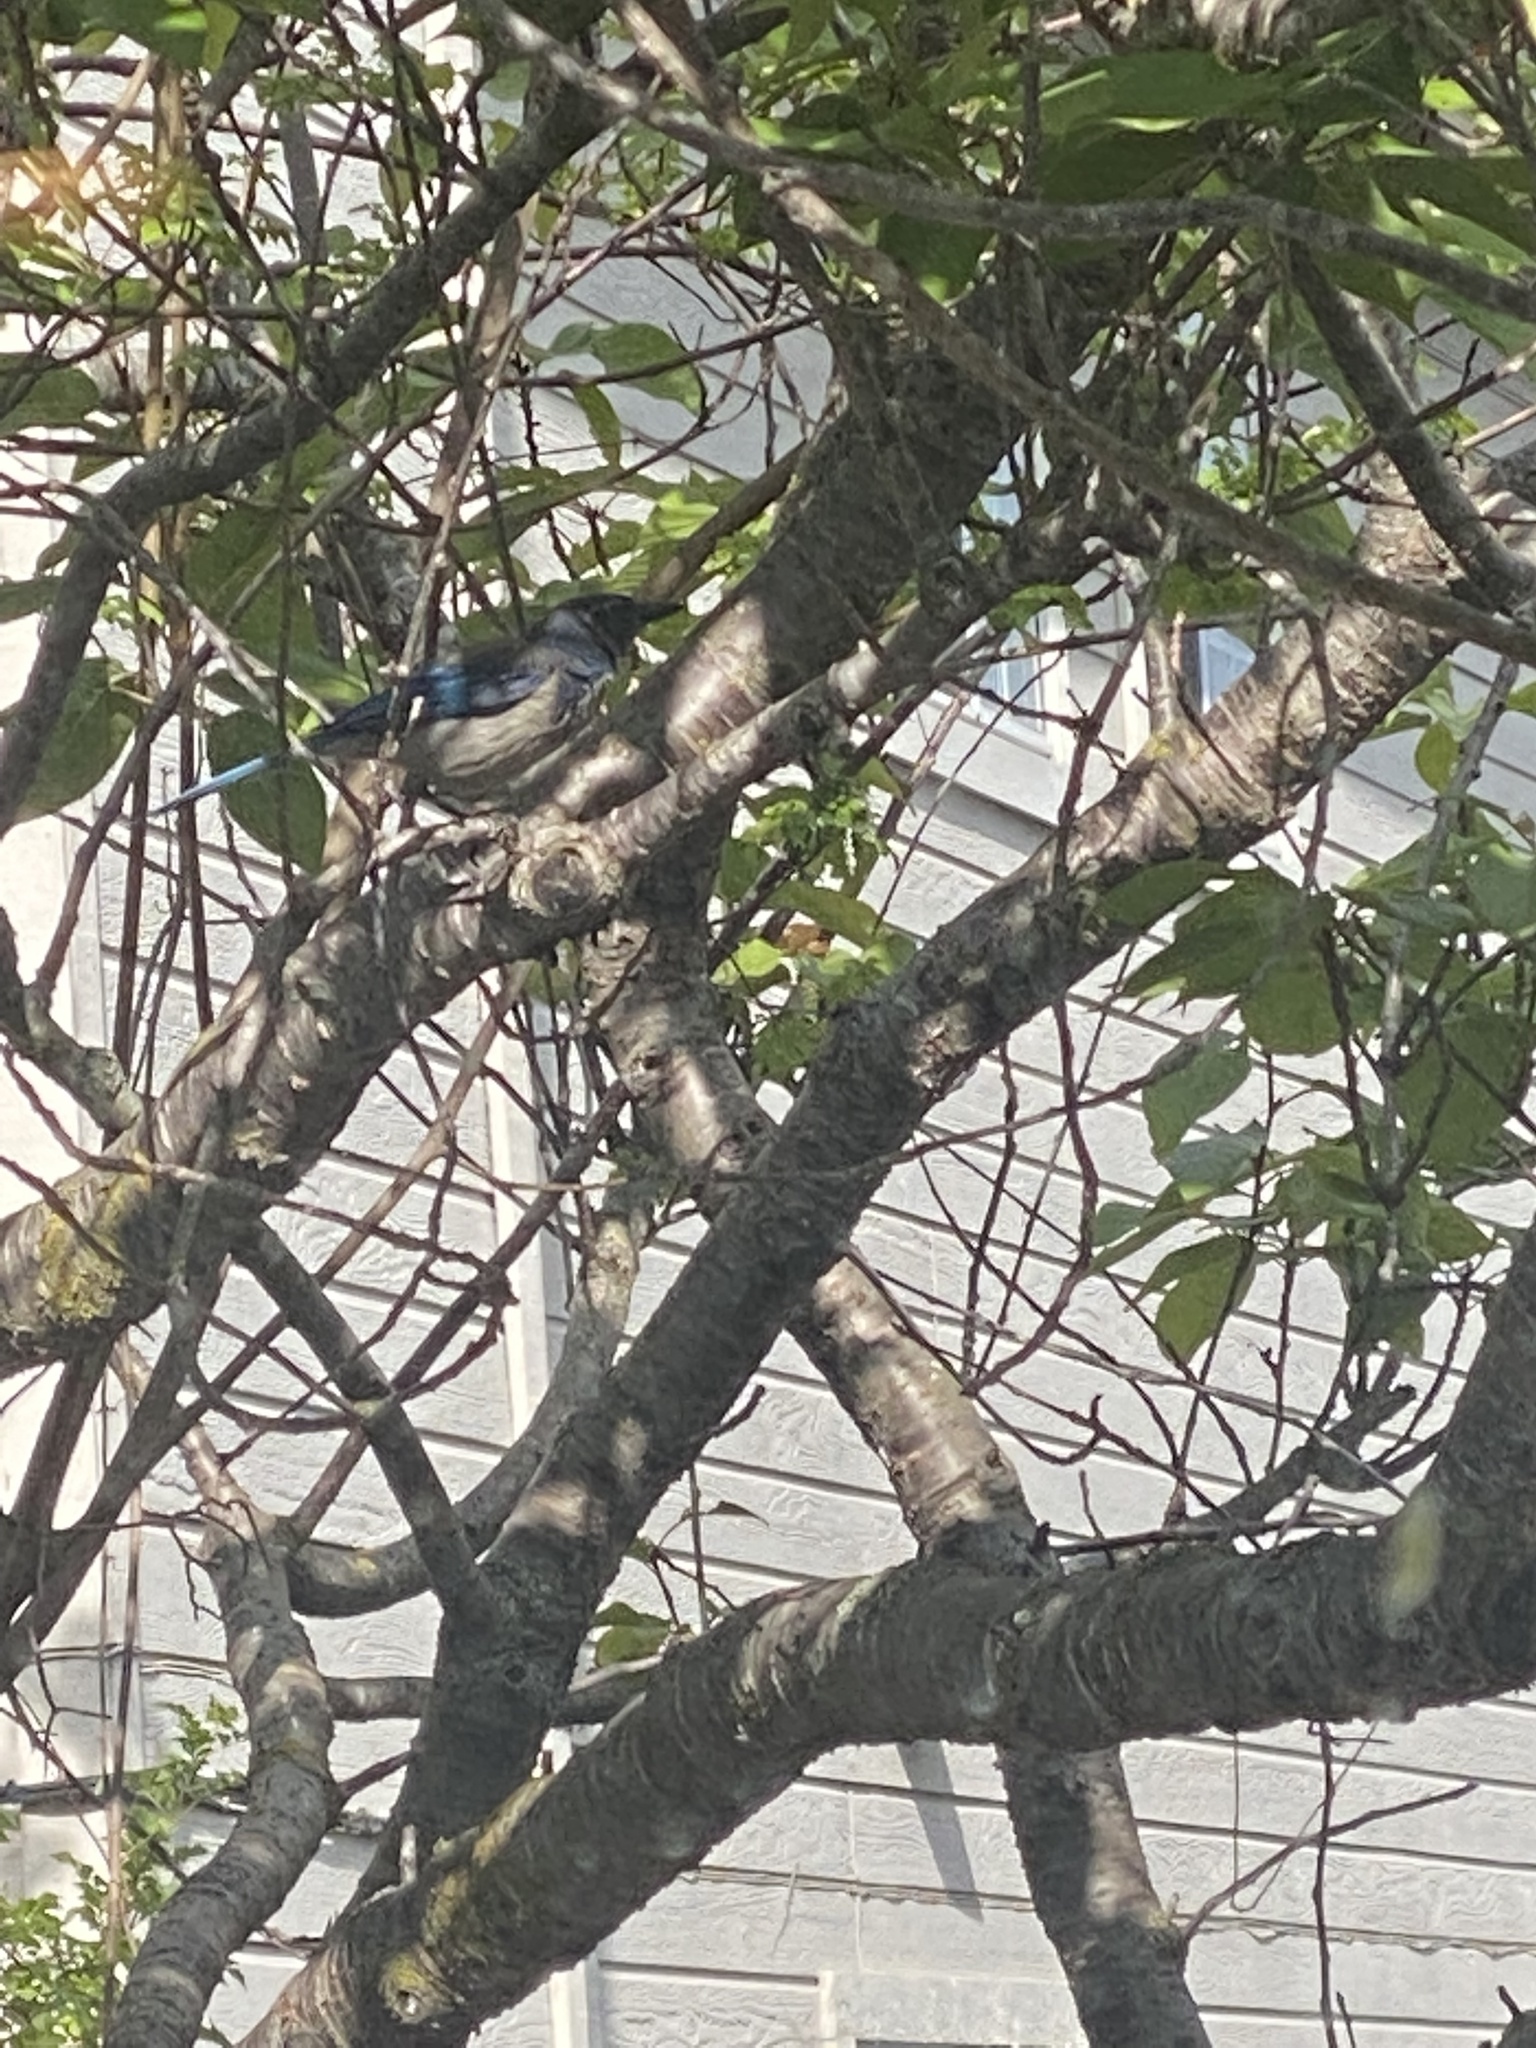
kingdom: Animalia
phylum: Chordata
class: Aves
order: Passeriformes
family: Corvidae
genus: Aphelocoma
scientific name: Aphelocoma californica
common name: California scrub-jay
